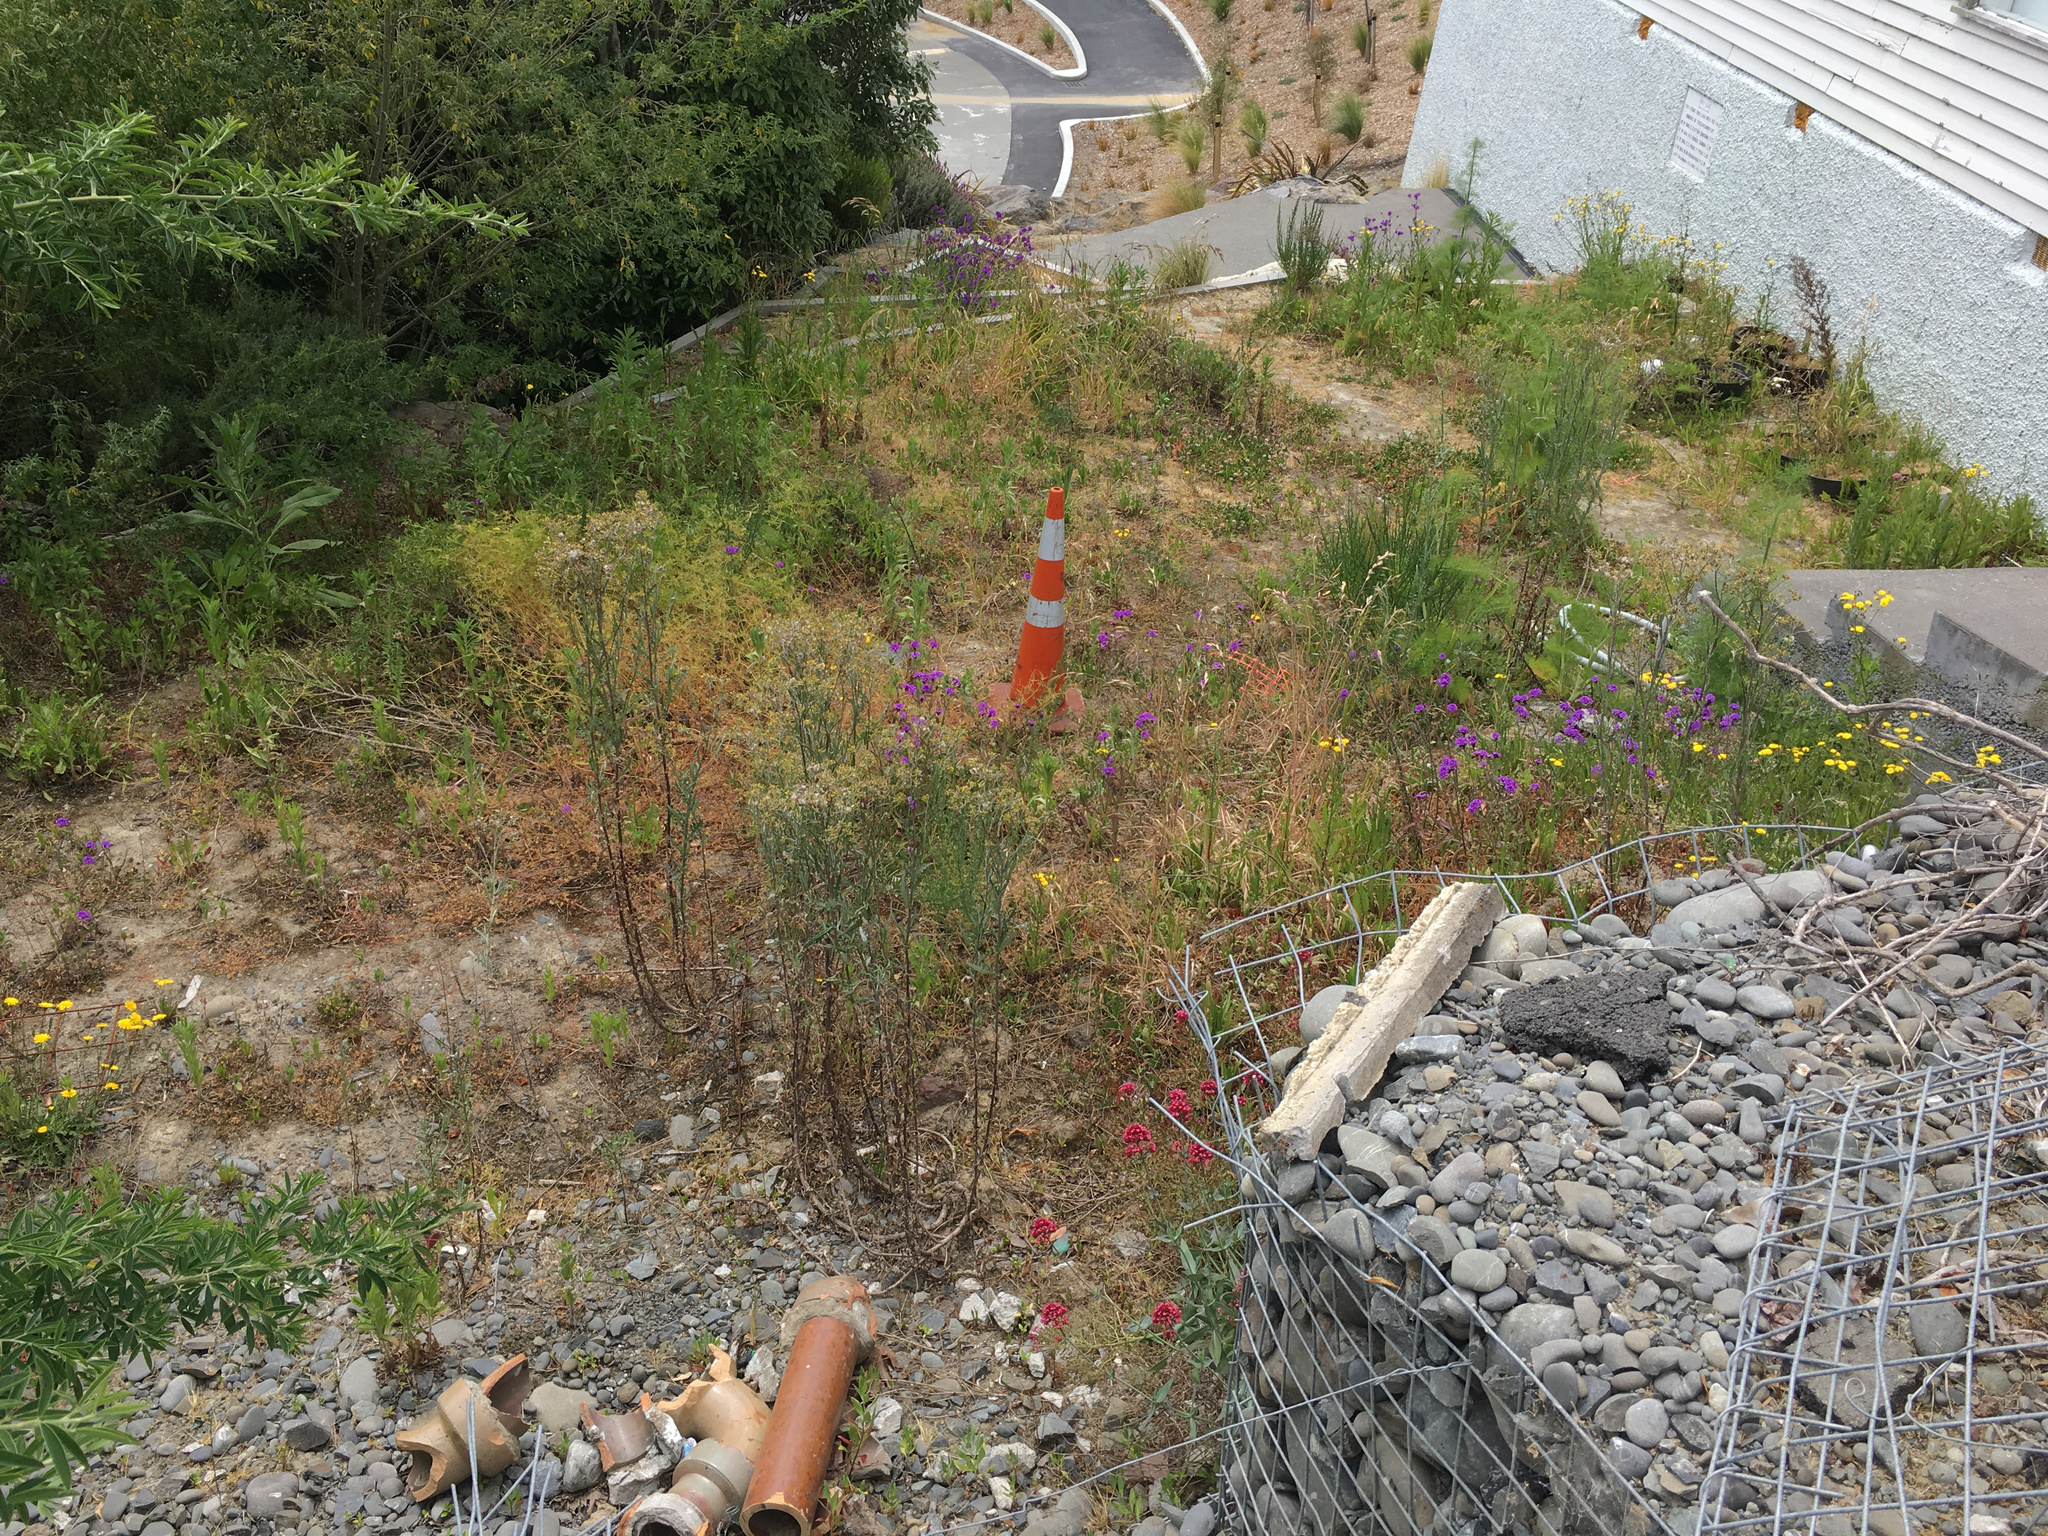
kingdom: Plantae
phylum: Tracheophyta
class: Magnoliopsida
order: Asterales
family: Asteraceae
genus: Senecio
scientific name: Senecio glomeratus
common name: Cutleaf burnweed
